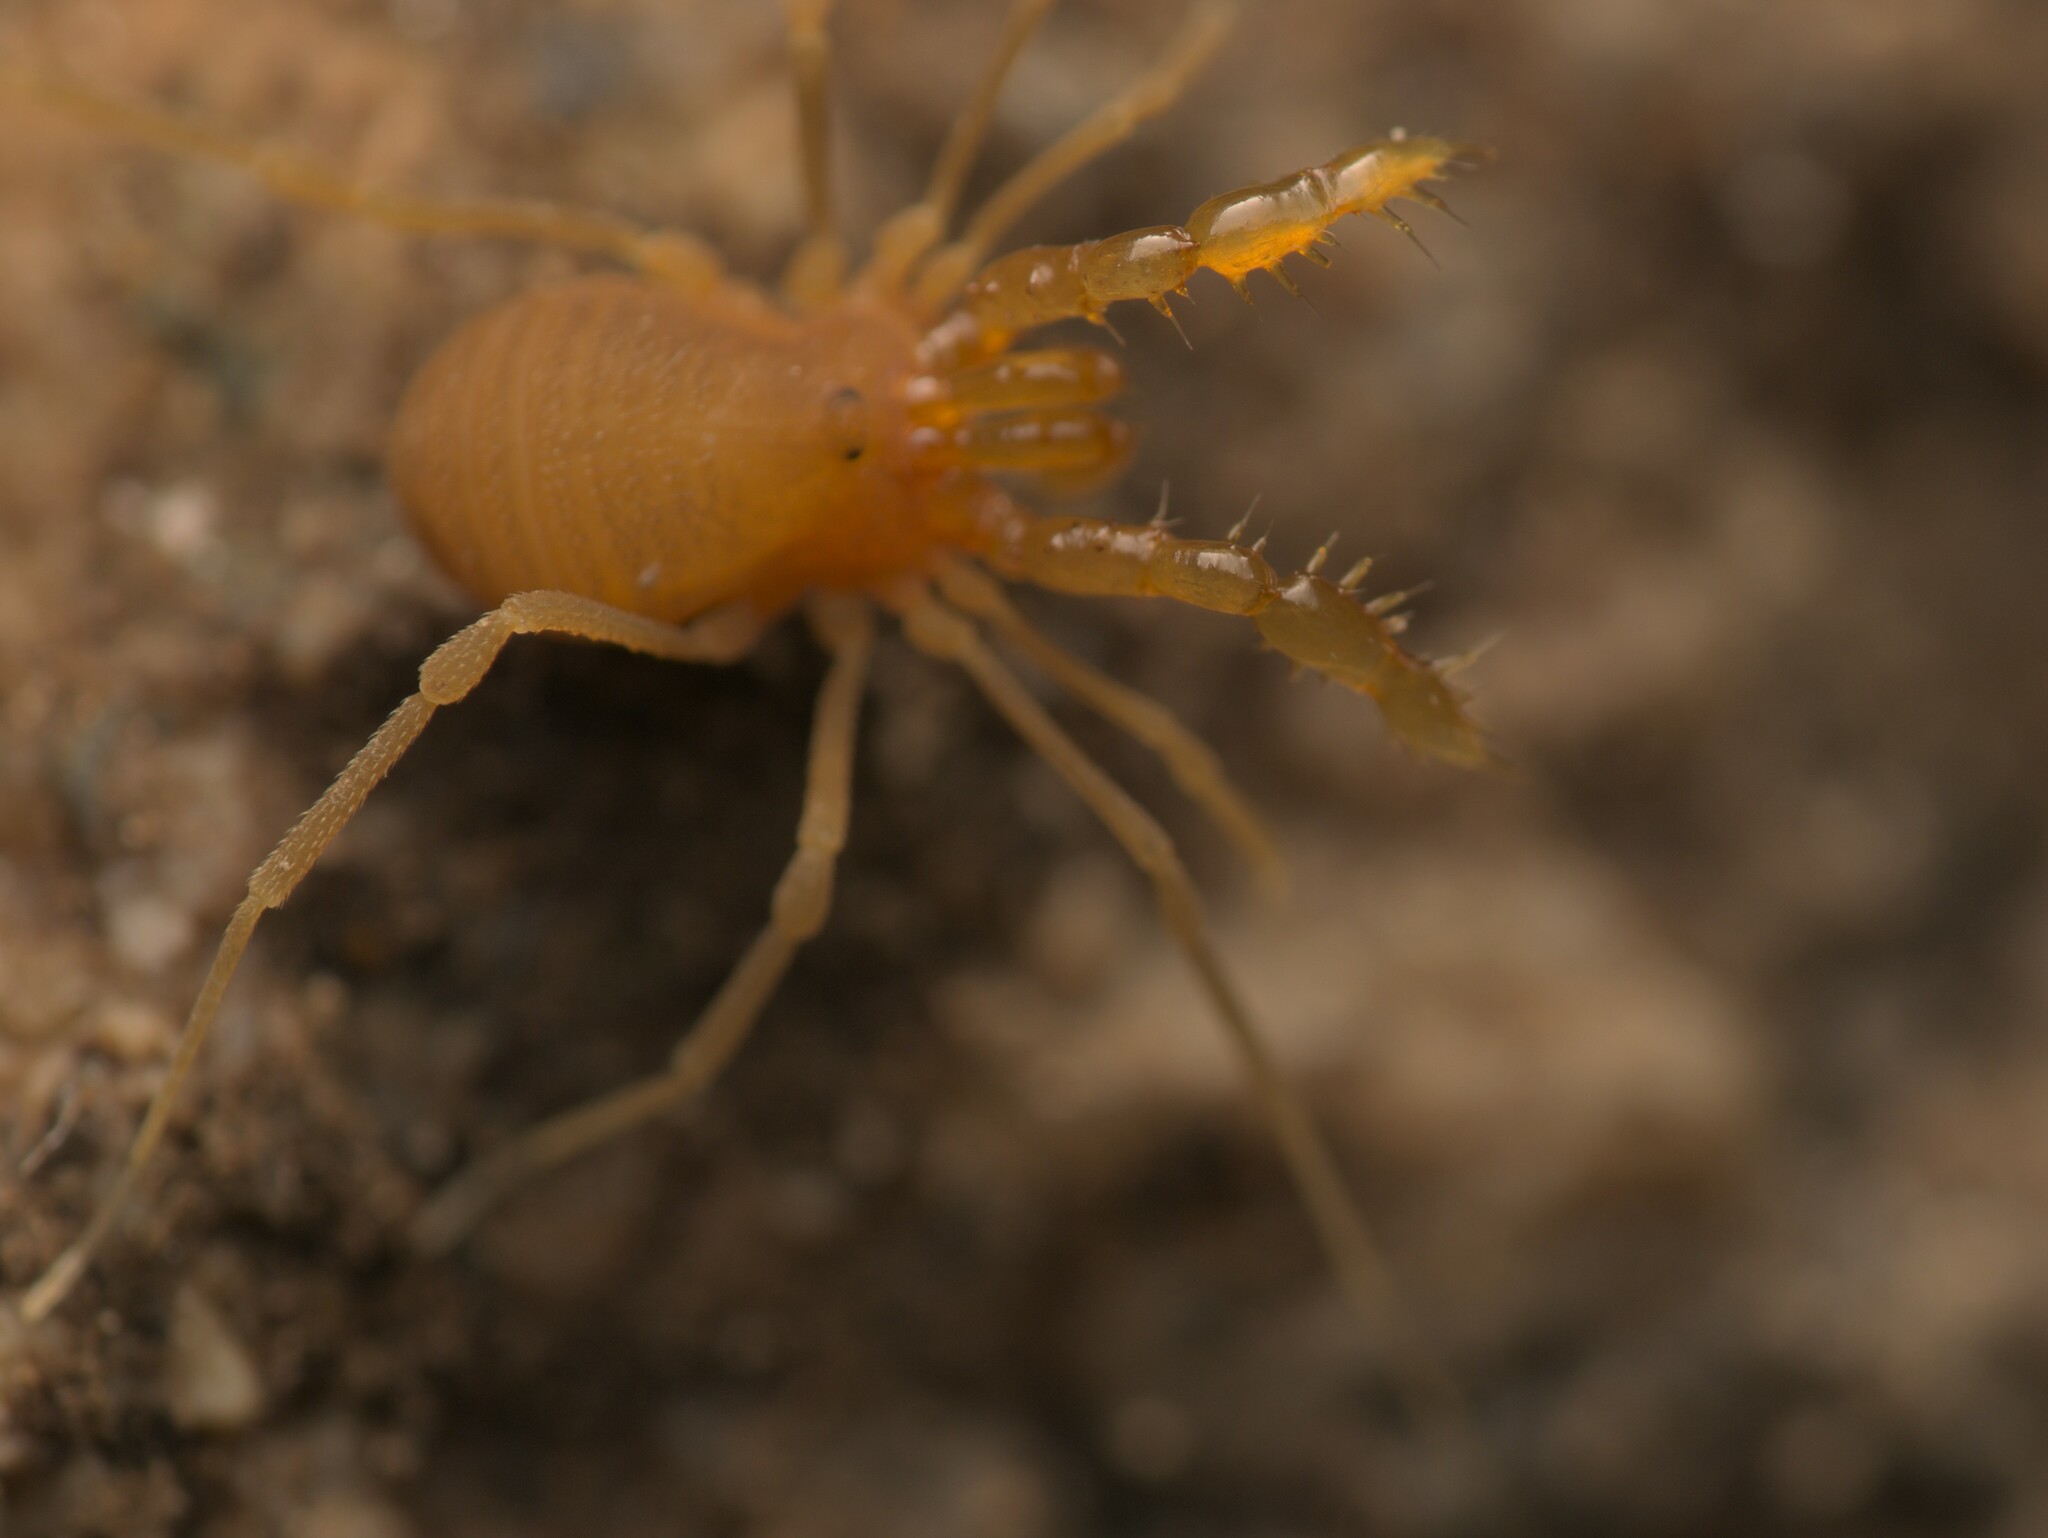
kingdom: Animalia
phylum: Arthropoda
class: Arachnida
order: Opiliones
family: Cladonychiidae
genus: Holoscotolemon
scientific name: Holoscotolemon querilhaci
